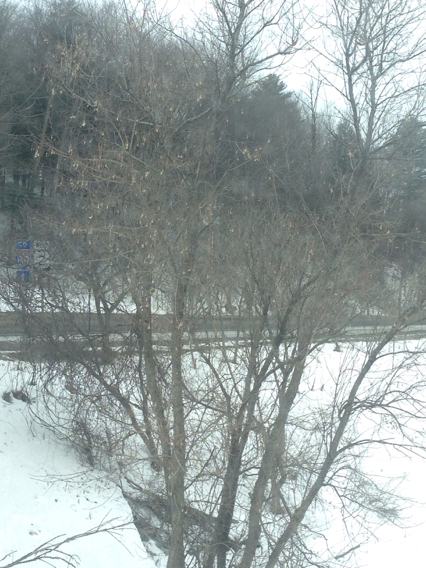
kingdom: Plantae
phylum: Tracheophyta
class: Magnoliopsida
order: Sapindales
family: Sapindaceae
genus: Acer
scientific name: Acer negundo
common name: Ashleaf maple
